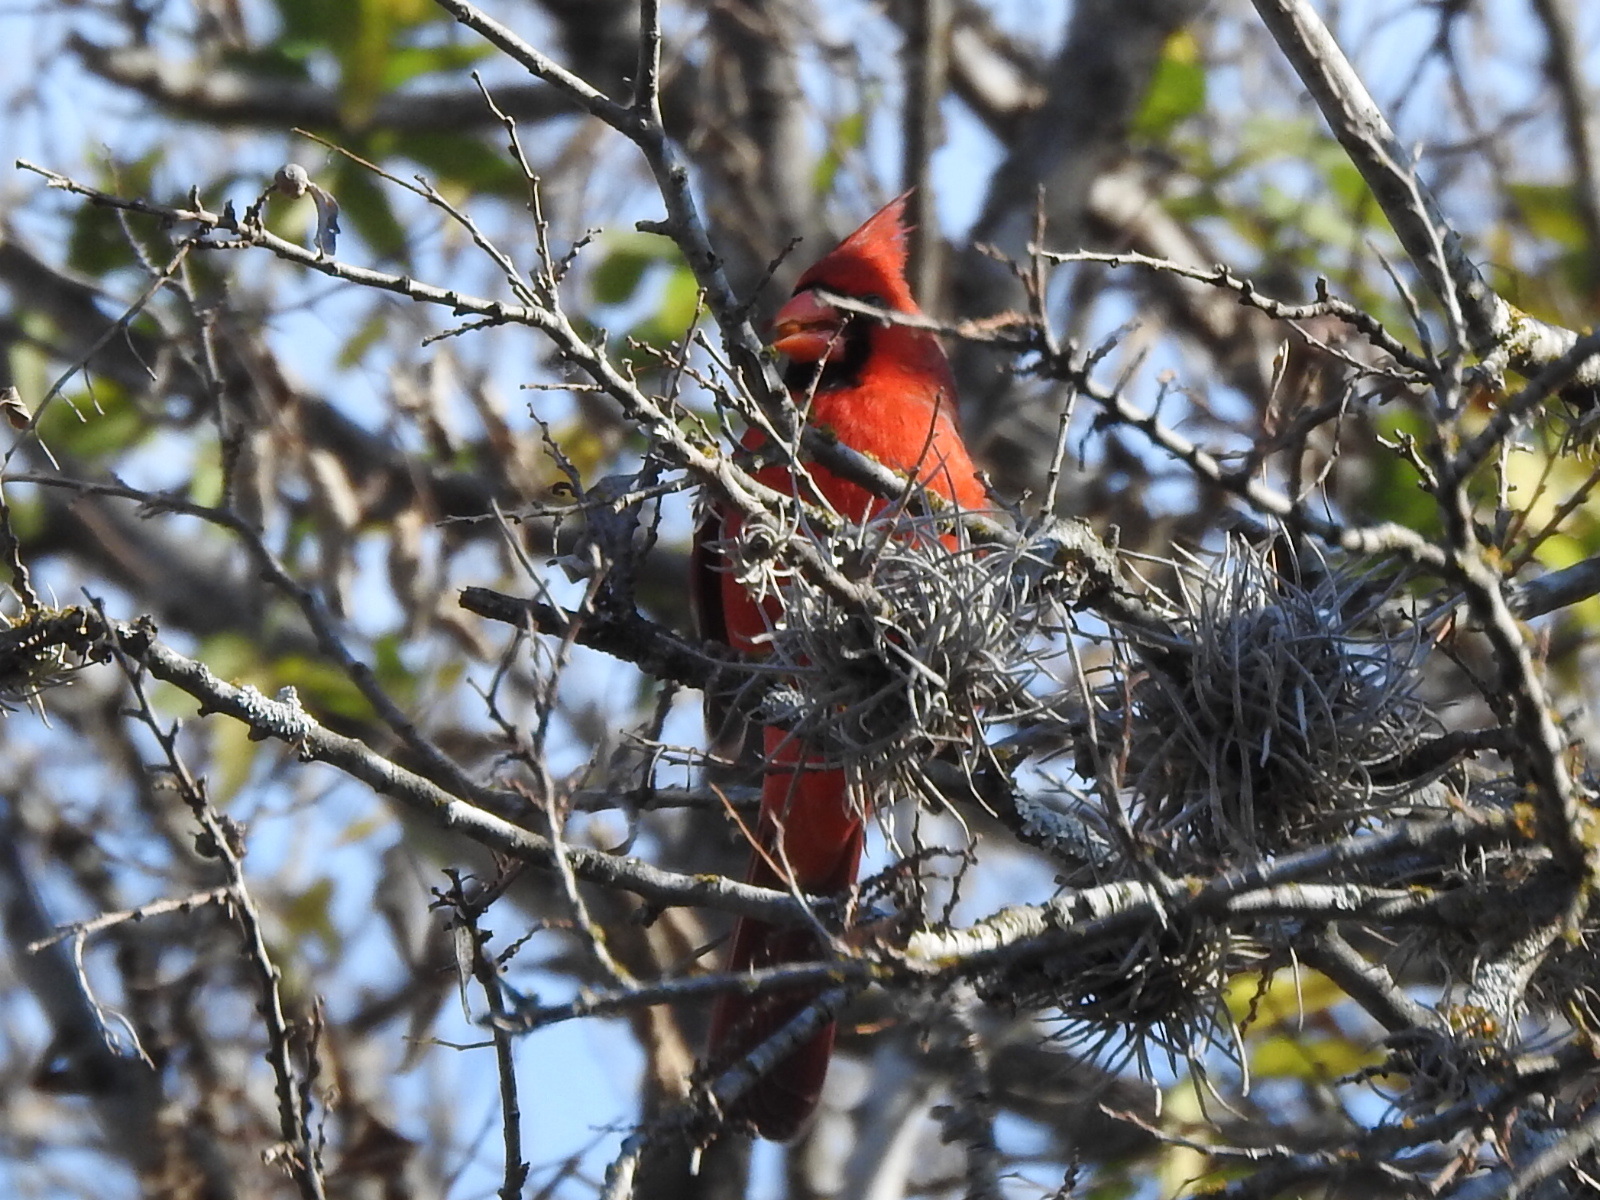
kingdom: Animalia
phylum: Chordata
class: Aves
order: Passeriformes
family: Cardinalidae
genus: Cardinalis
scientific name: Cardinalis cardinalis
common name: Northern cardinal
